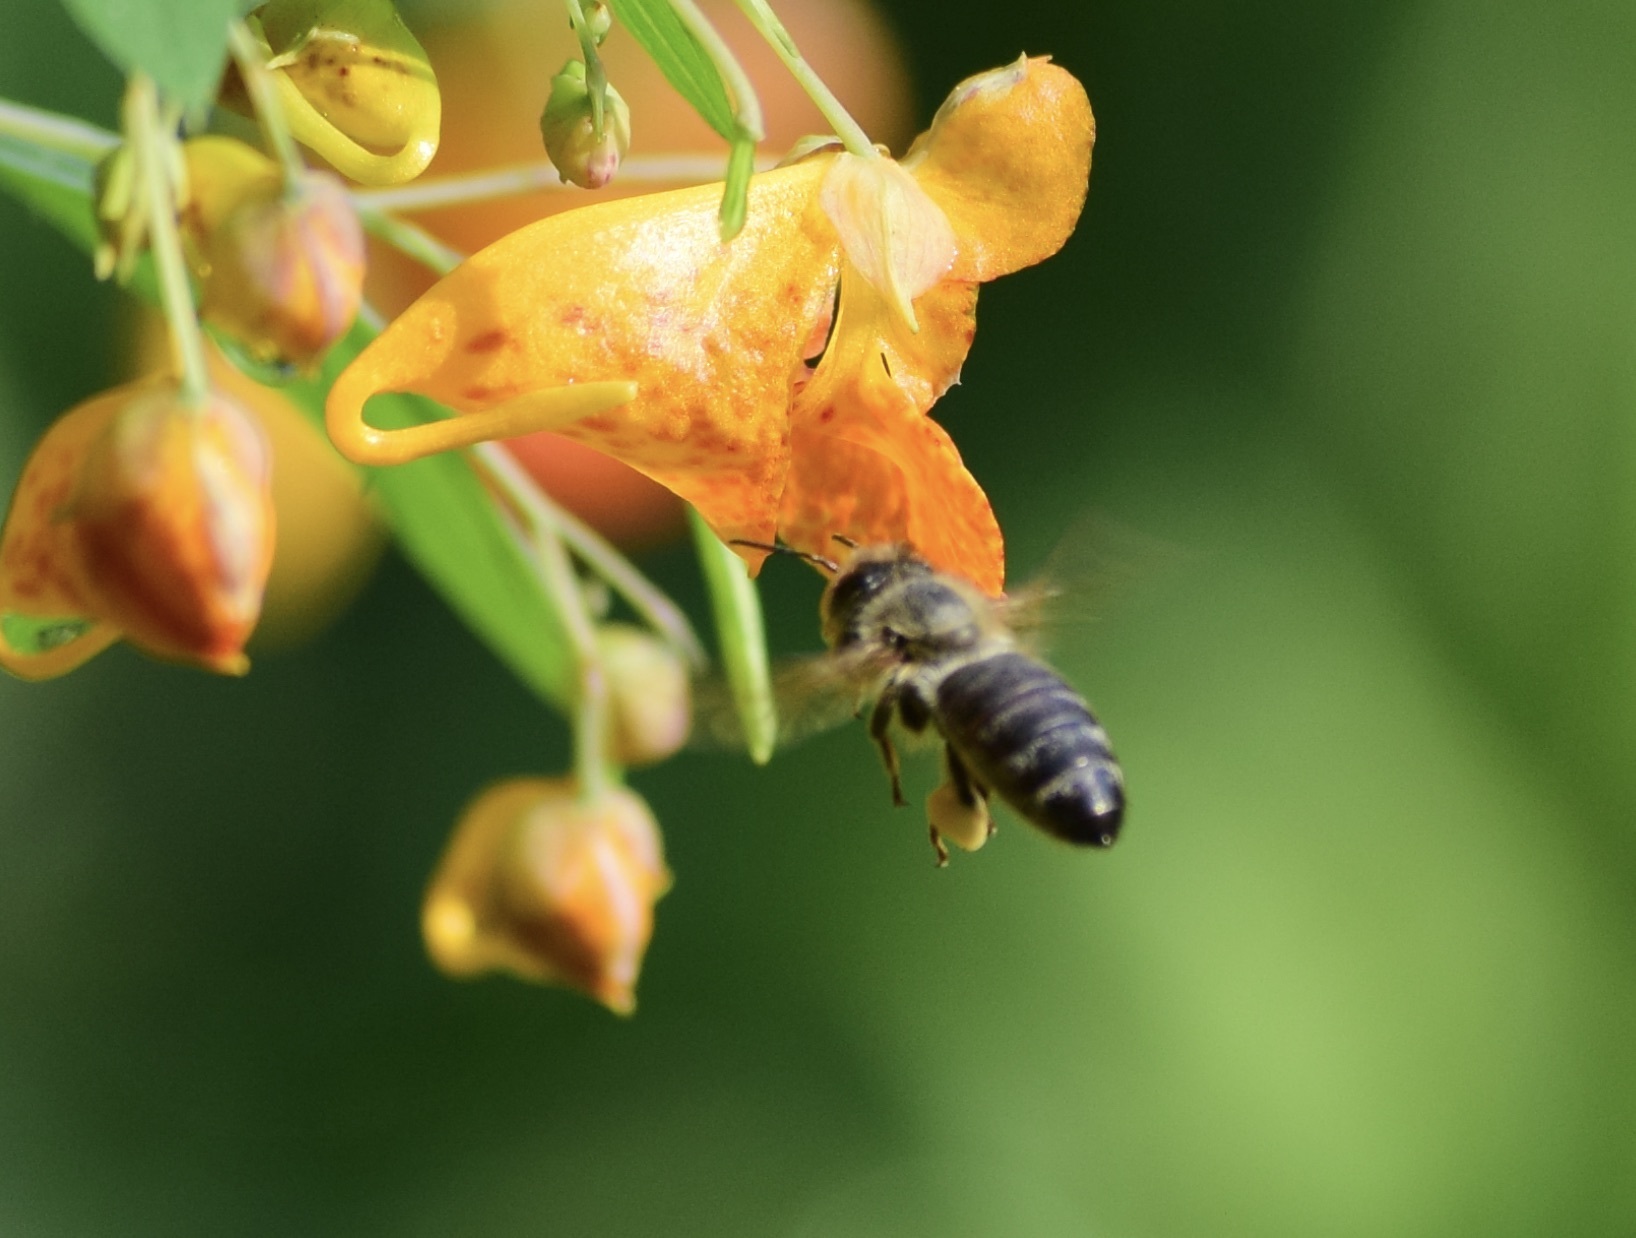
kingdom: Animalia
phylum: Arthropoda
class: Insecta
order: Hymenoptera
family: Apidae
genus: Apis
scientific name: Apis mellifera
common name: Honey bee
